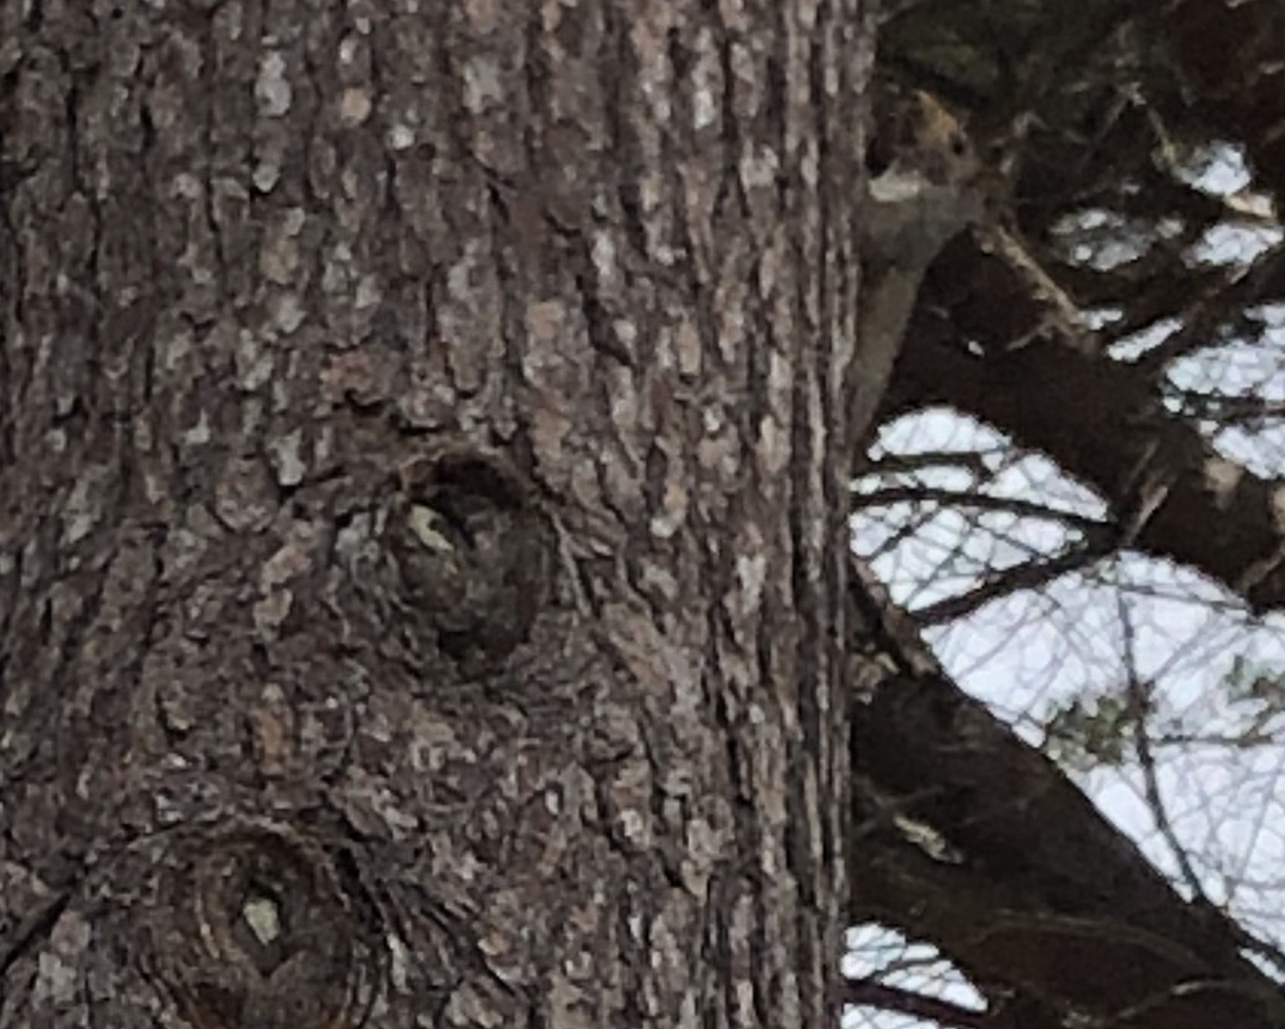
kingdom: Animalia
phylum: Chordata
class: Mammalia
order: Rodentia
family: Sciuridae
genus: Sciurus
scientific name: Sciurus carolinensis
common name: Eastern gray squirrel
